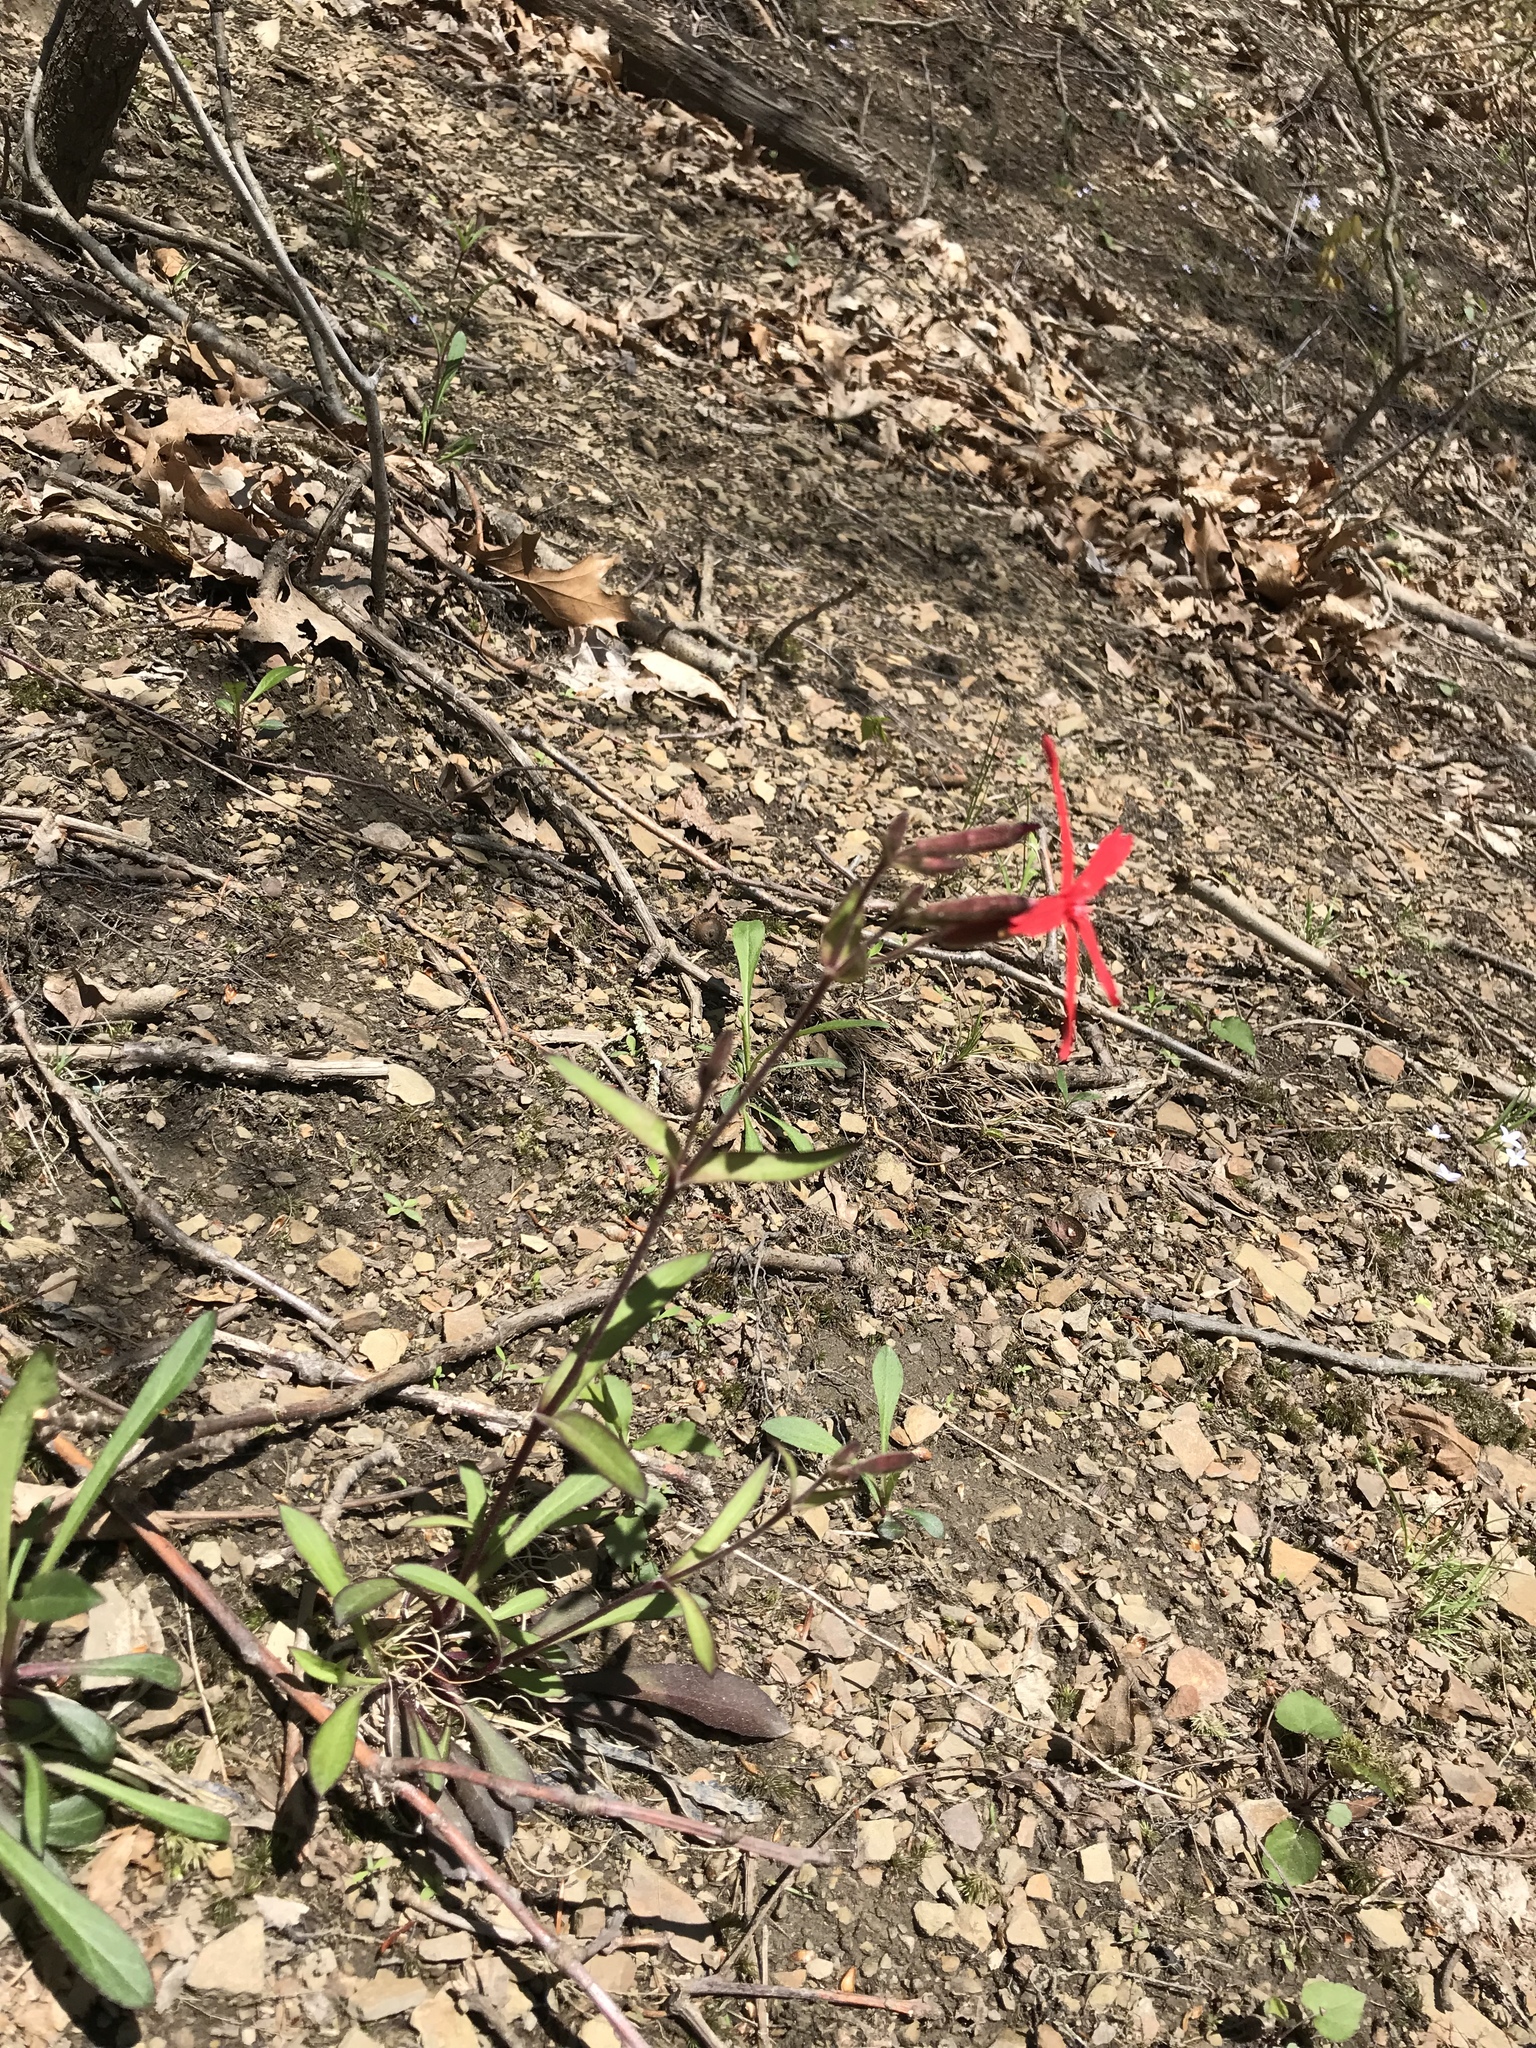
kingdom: Plantae
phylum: Tracheophyta
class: Magnoliopsida
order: Caryophyllales
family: Caryophyllaceae
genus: Silene
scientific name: Silene virginica
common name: Fire-pink
